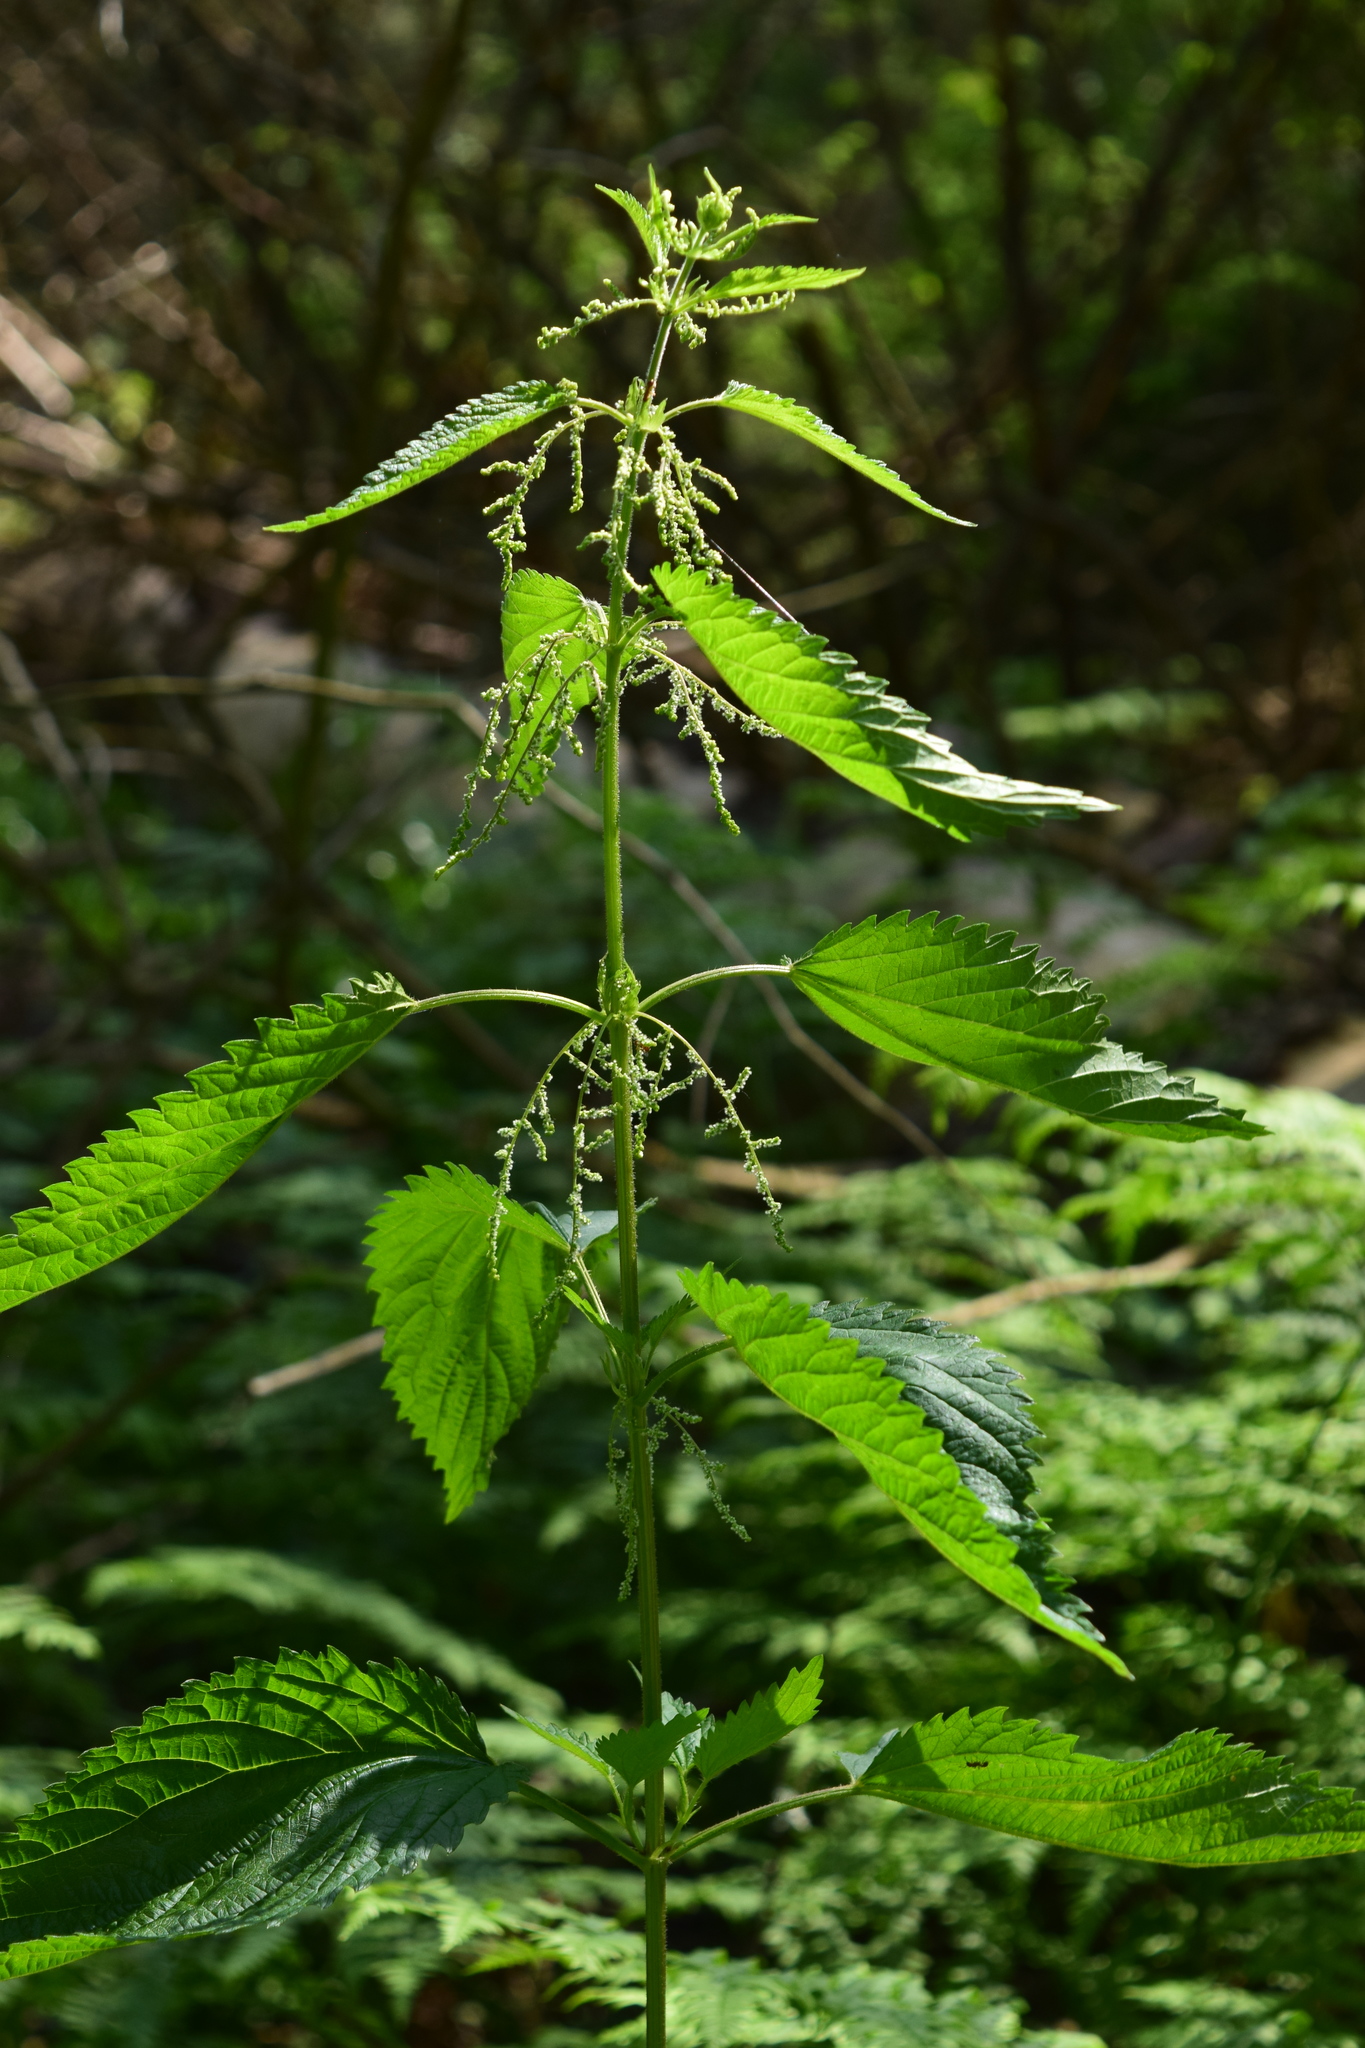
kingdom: Plantae
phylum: Tracheophyta
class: Magnoliopsida
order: Rosales
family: Urticaceae
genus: Urtica
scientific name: Urtica dioica
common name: Common nettle
